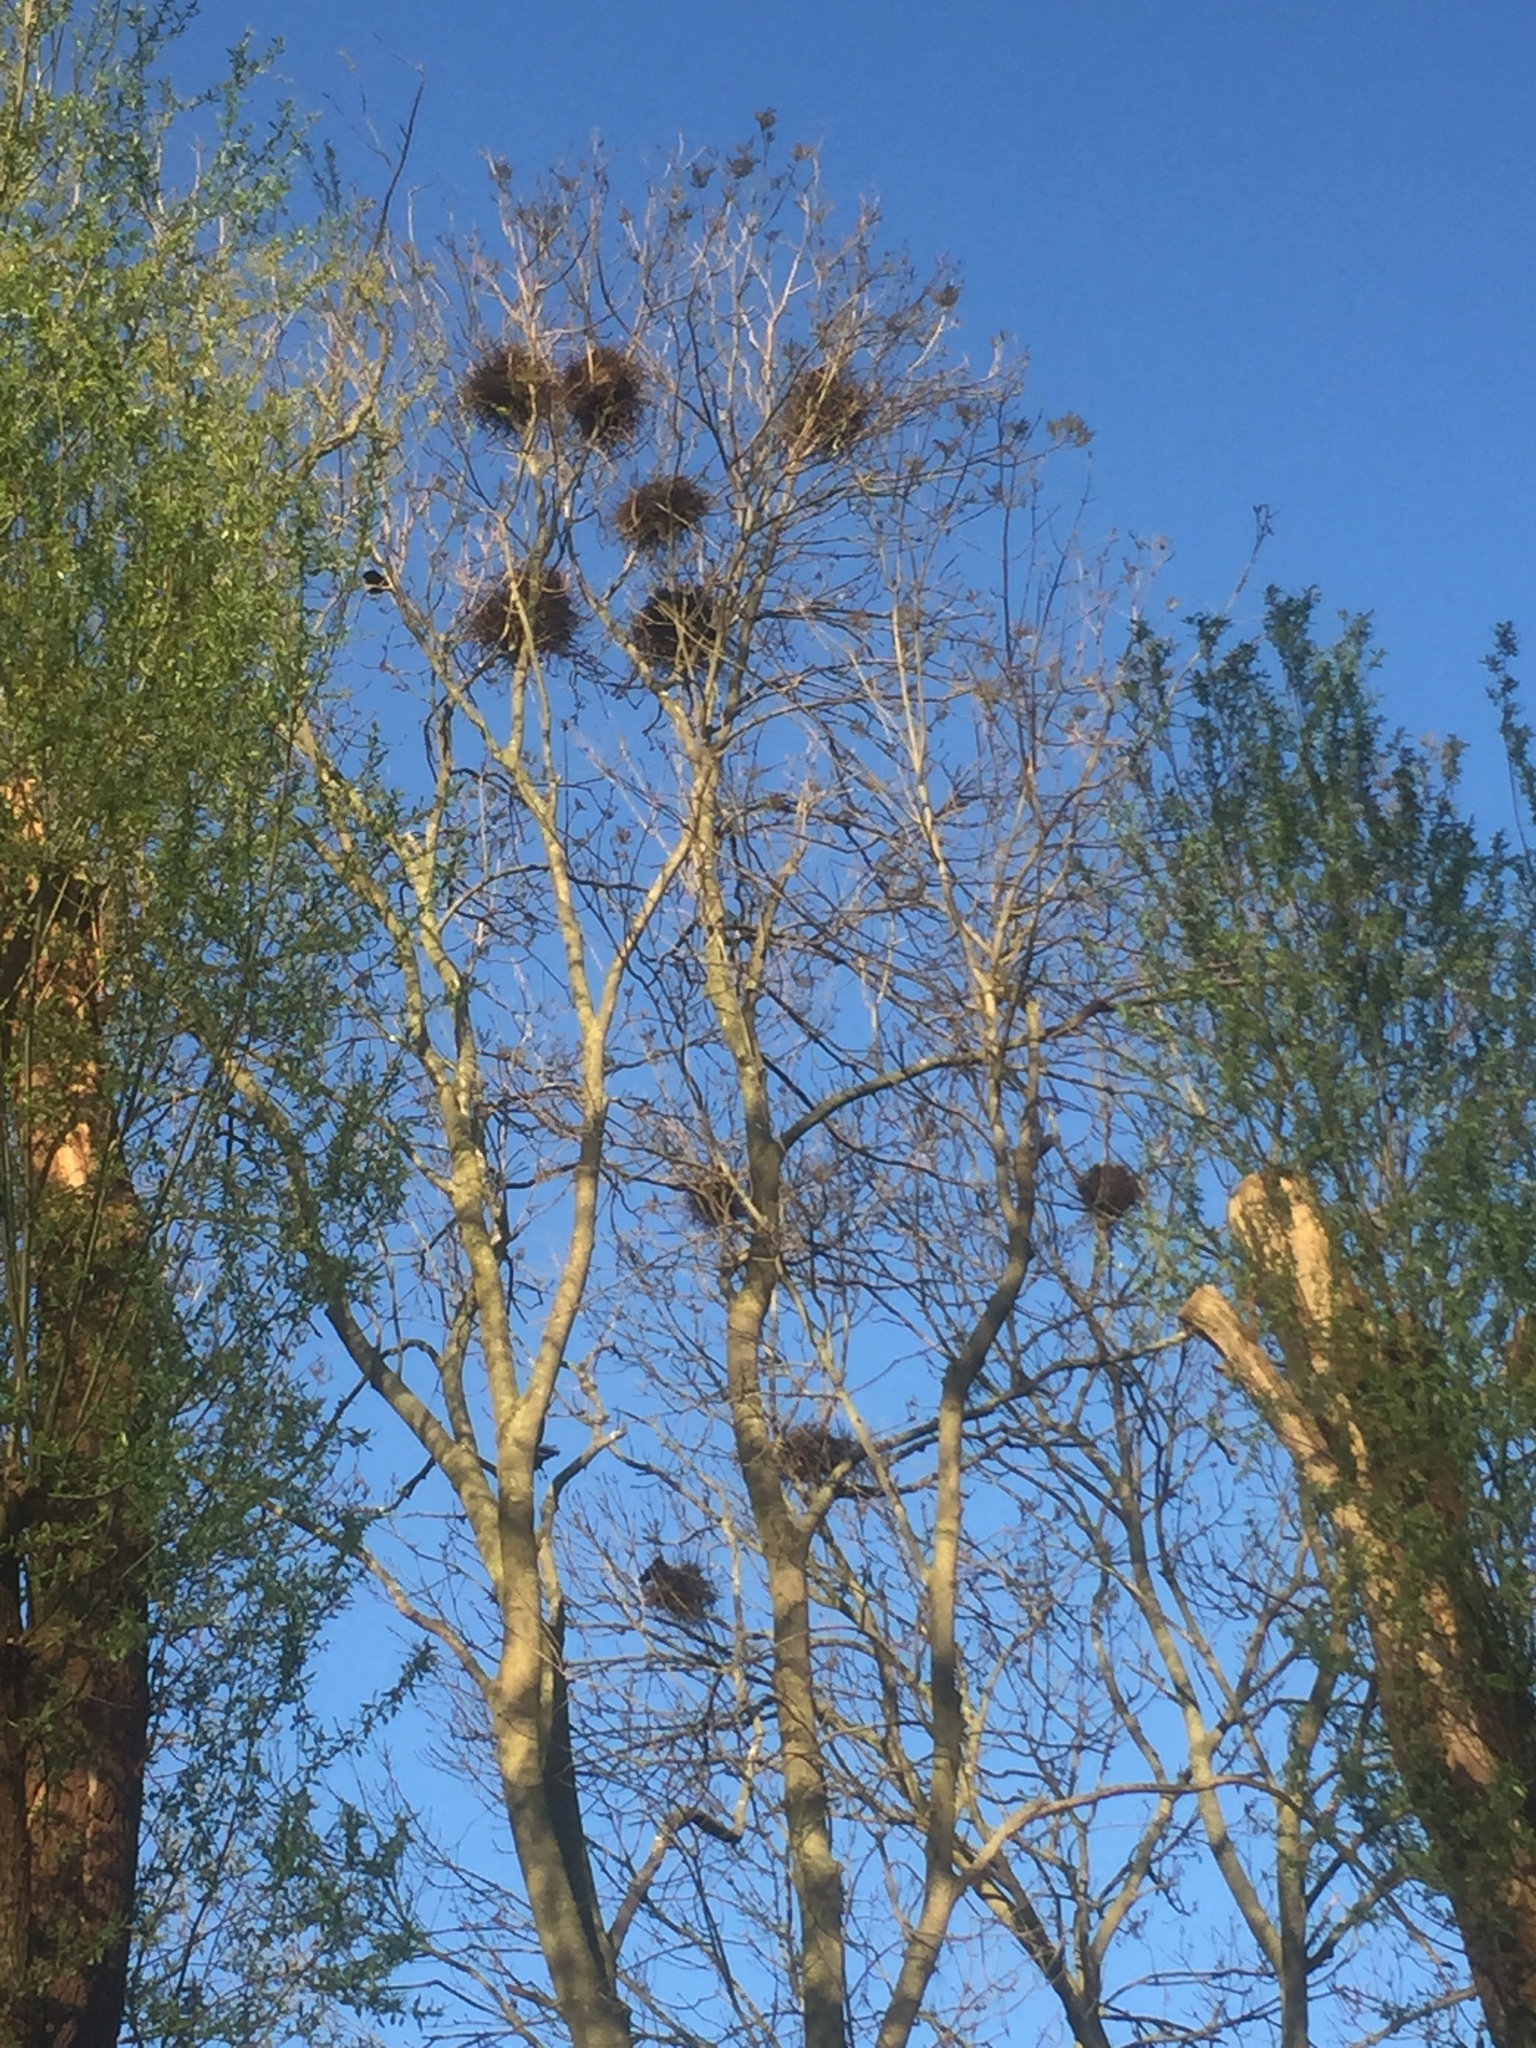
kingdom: Animalia
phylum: Chordata
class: Aves
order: Passeriformes
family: Corvidae
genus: Corvus
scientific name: Corvus frugilegus
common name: Rook
